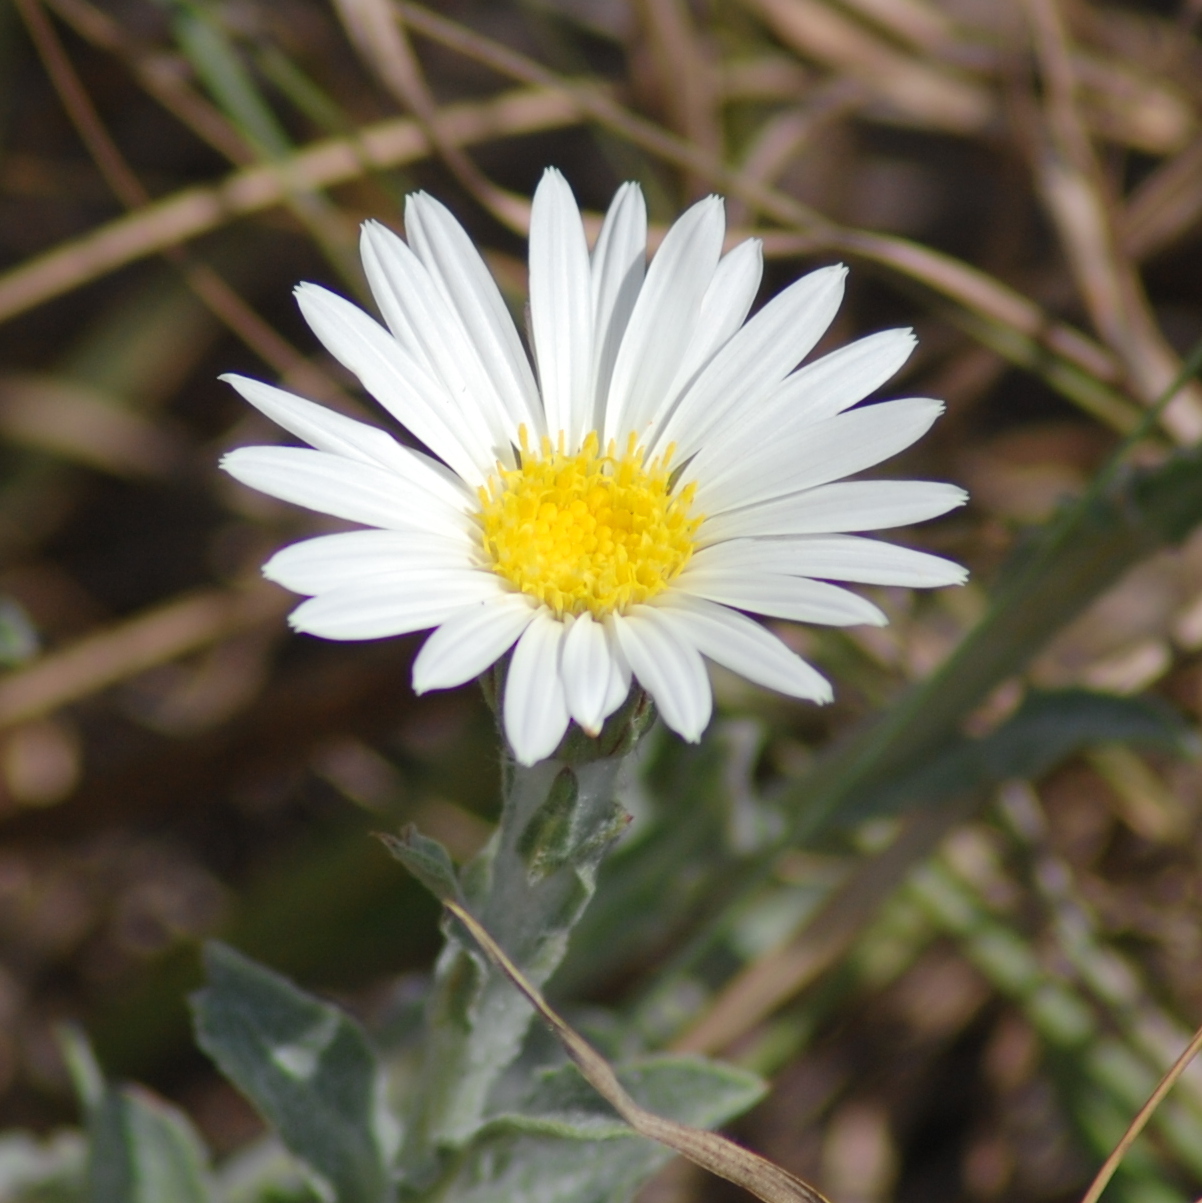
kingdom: Plantae
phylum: Tracheophyta
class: Magnoliopsida
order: Asterales
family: Asteraceae
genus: Noticastrum
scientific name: Noticastrum macrocephalum
